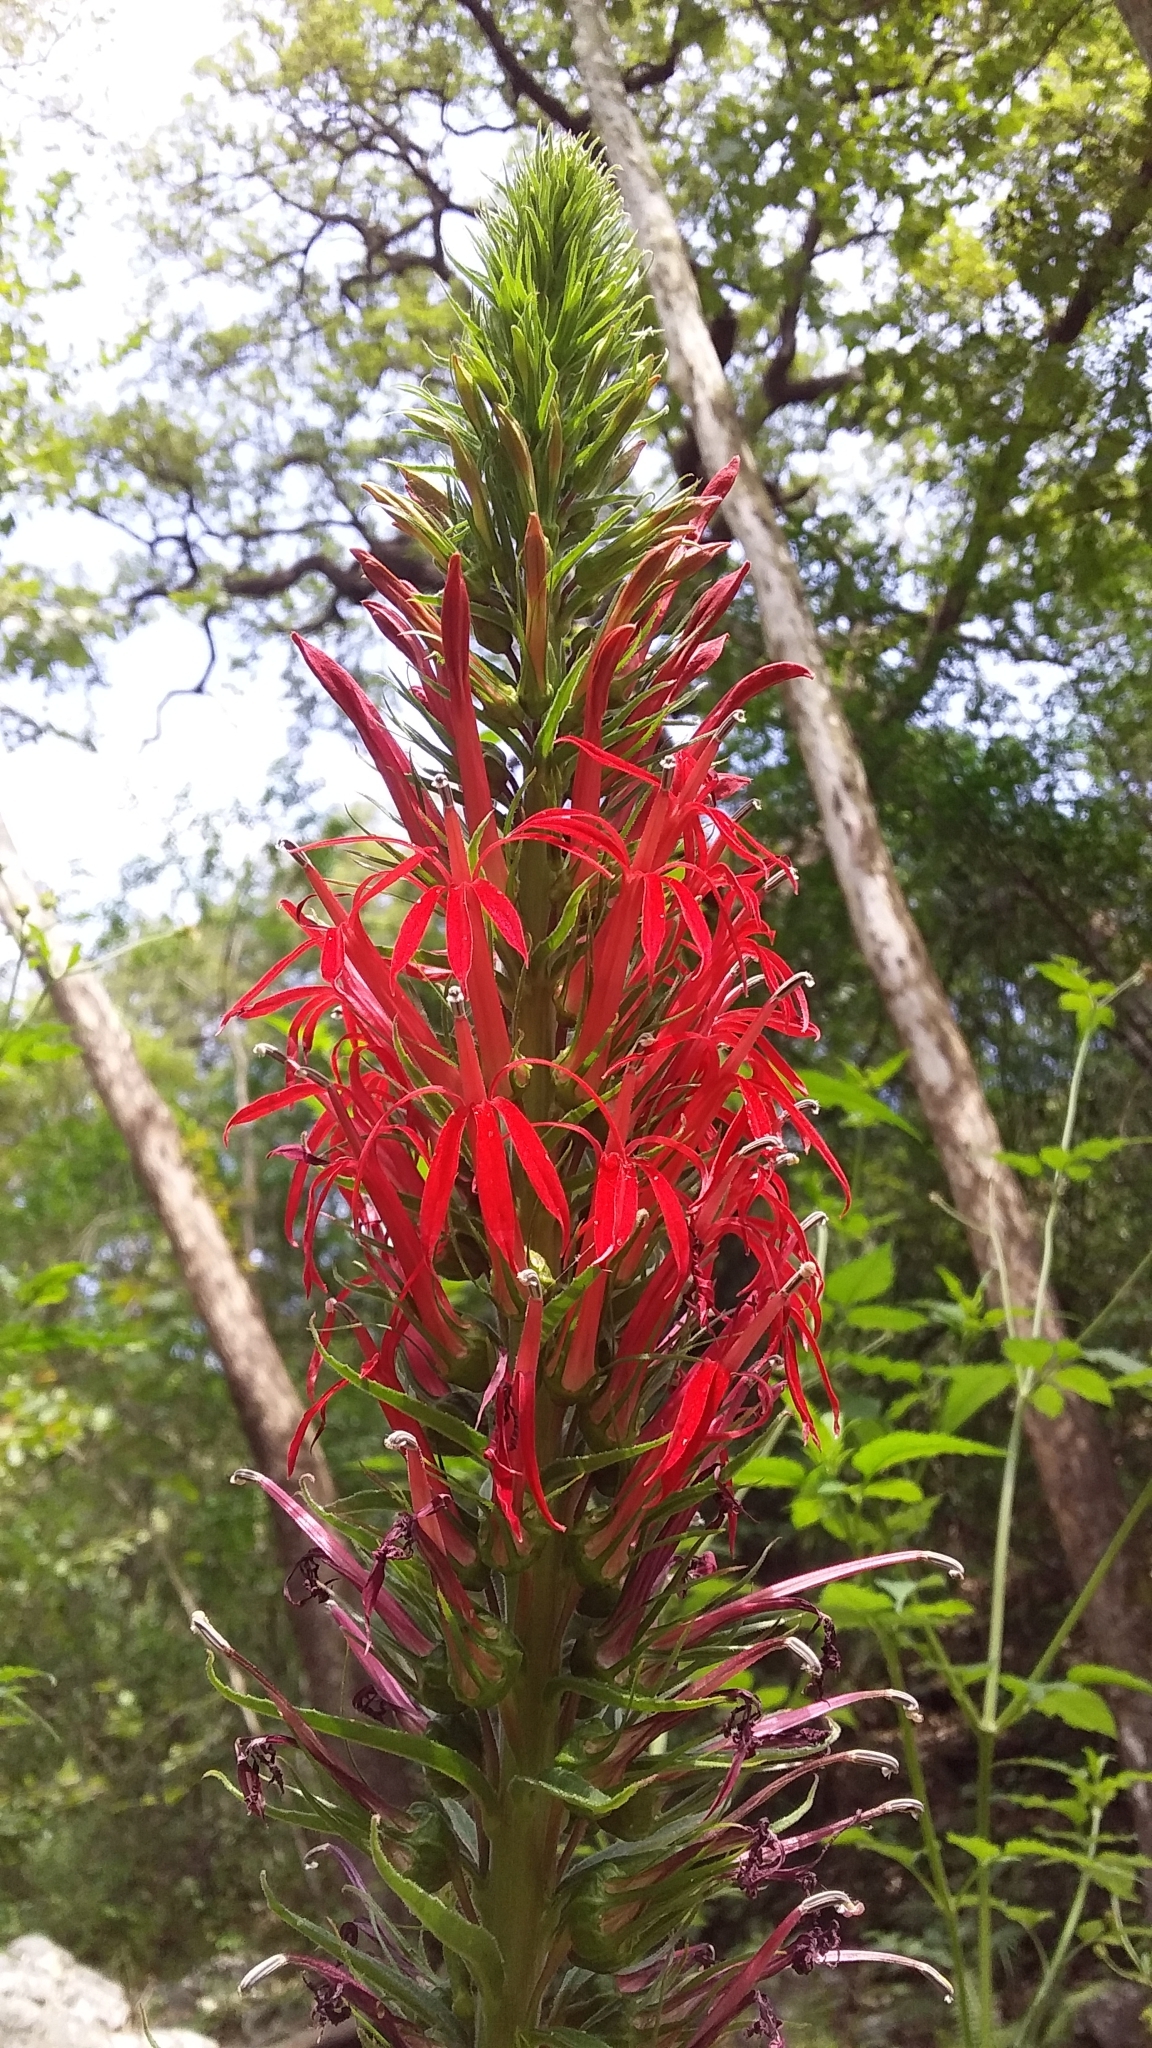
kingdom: Plantae
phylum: Tracheophyta
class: Magnoliopsida
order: Asterales
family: Campanulaceae
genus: Lobelia
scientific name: Lobelia cardinalis
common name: Cardinal flower
